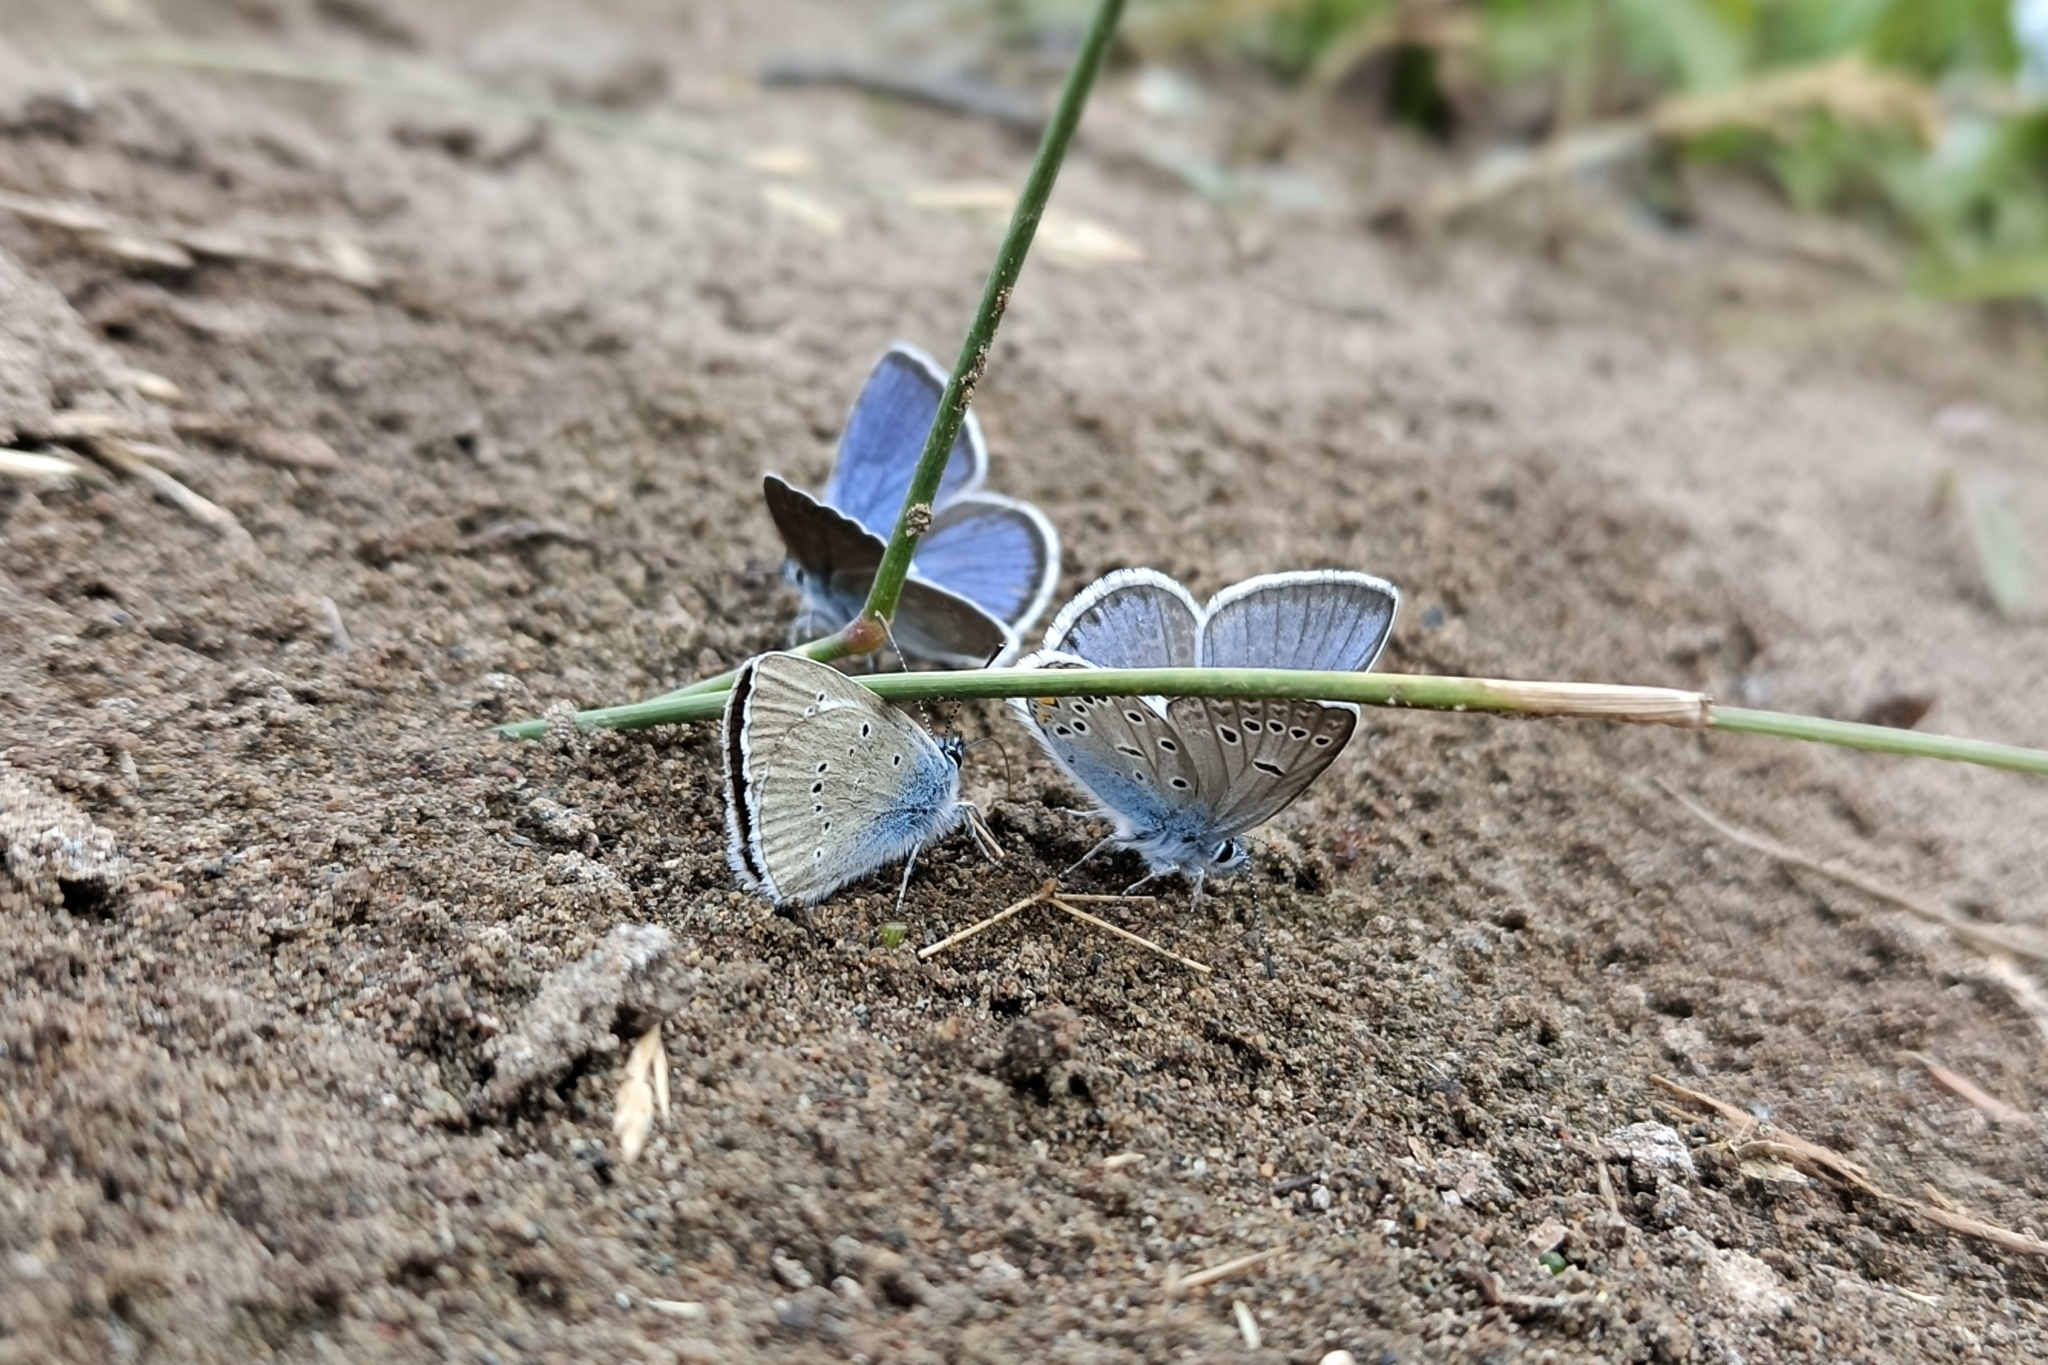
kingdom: Animalia
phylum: Arthropoda
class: Insecta
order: Lepidoptera
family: Lycaenidae
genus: Plebejus
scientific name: Plebejus amanda
